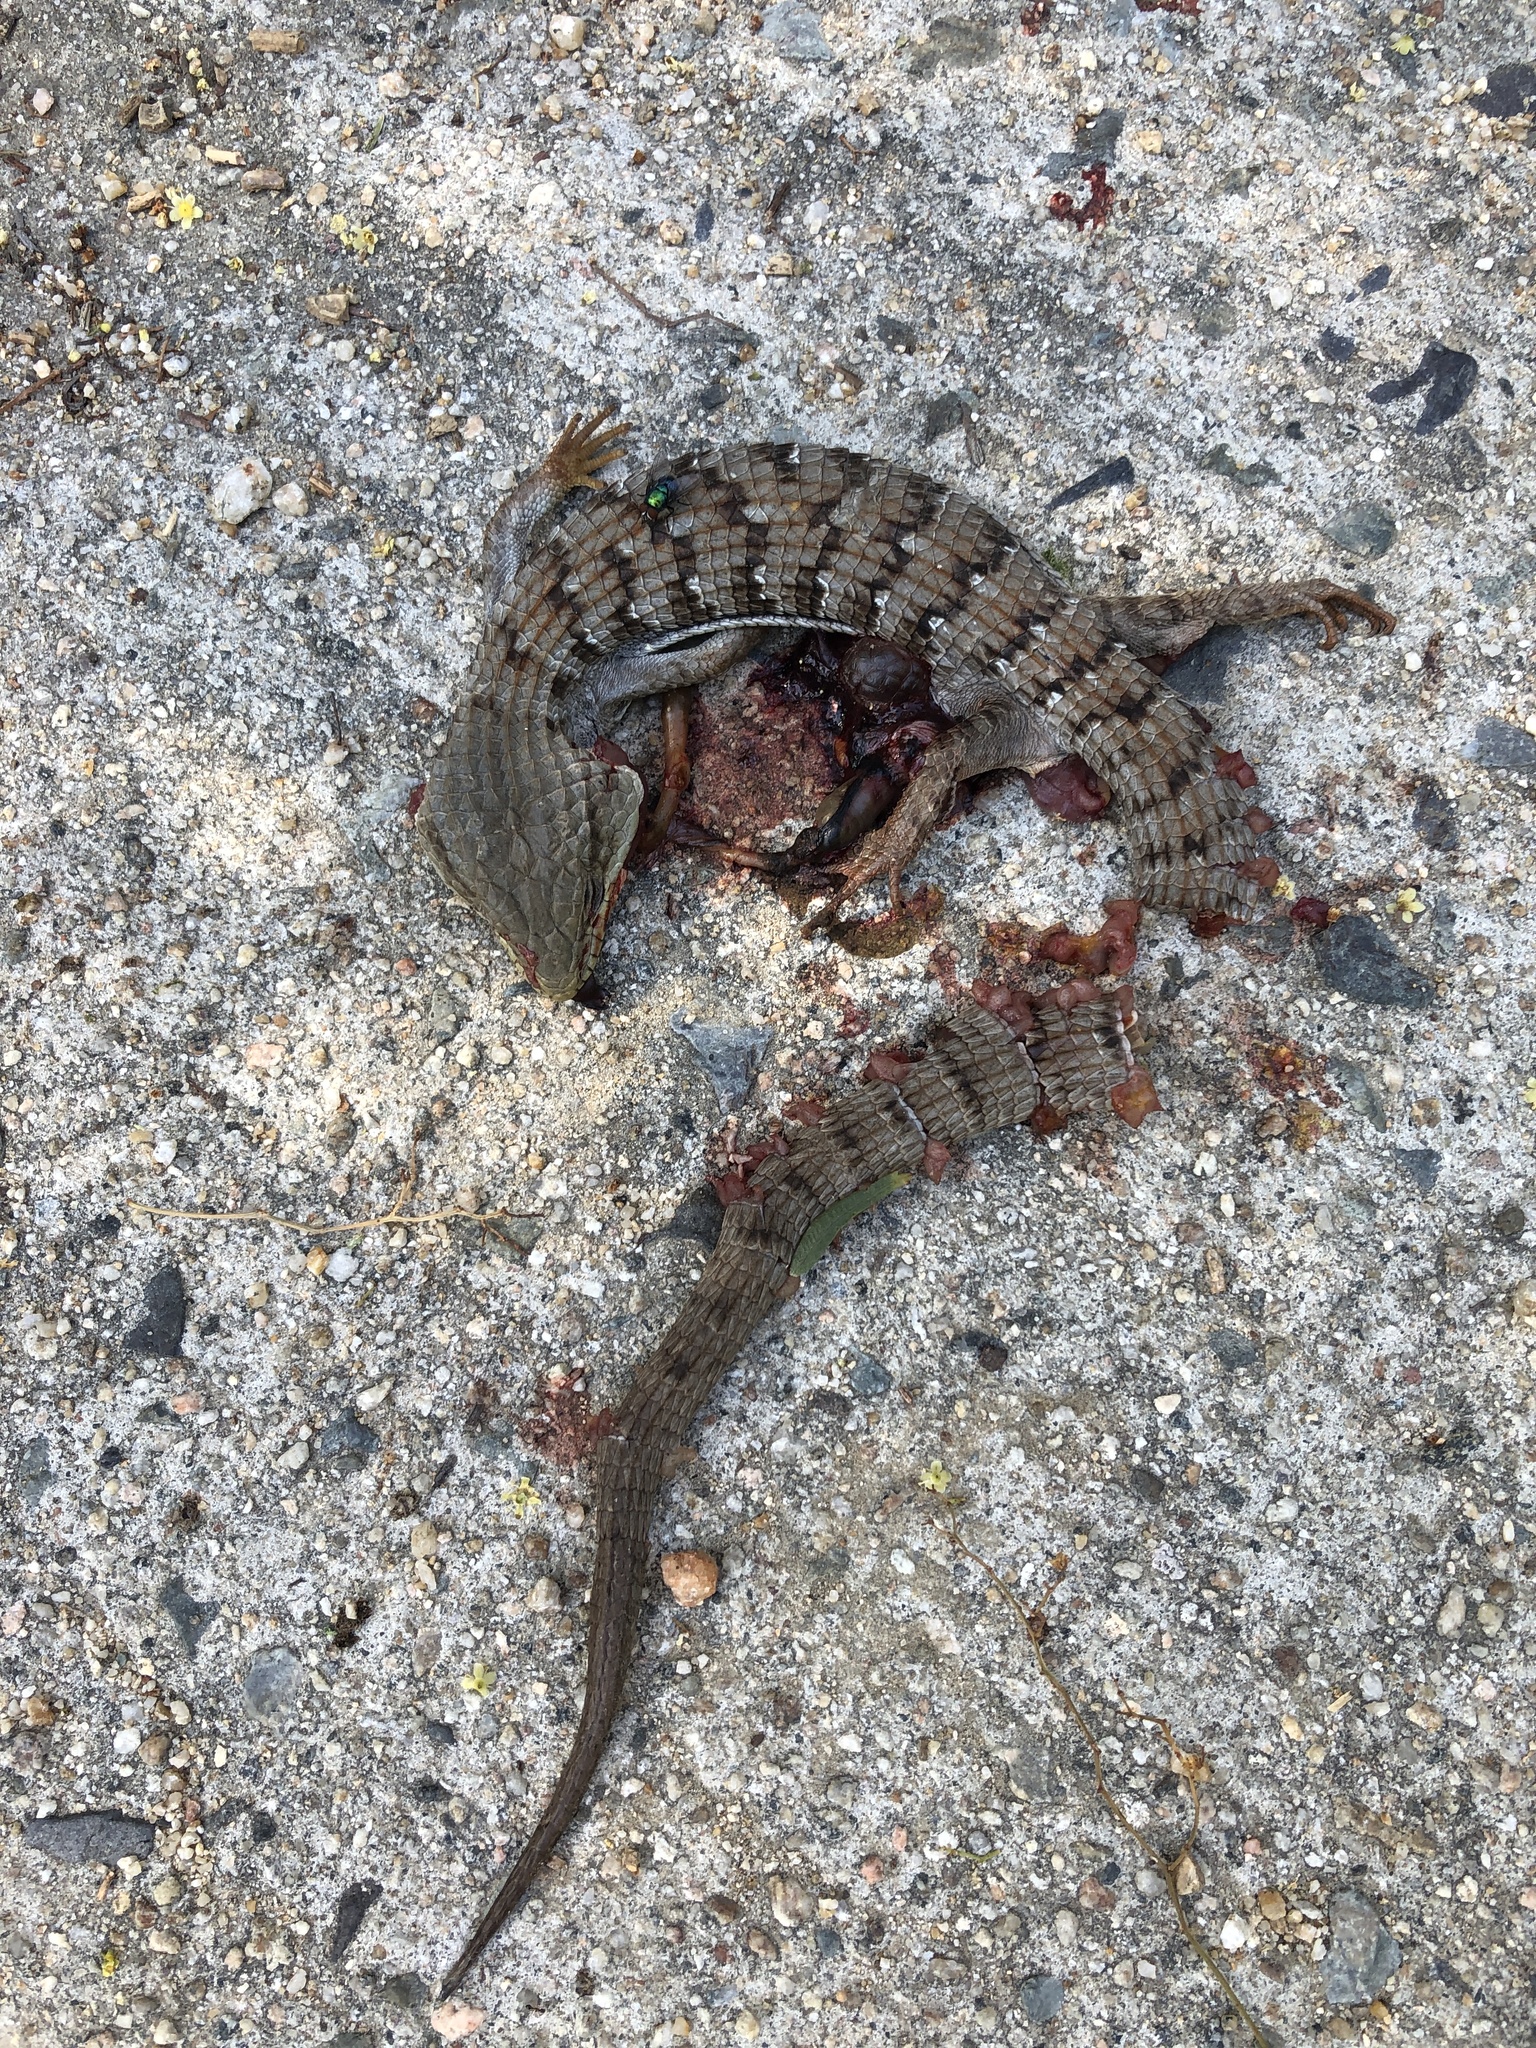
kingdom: Animalia
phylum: Chordata
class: Squamata
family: Anguidae
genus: Elgaria
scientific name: Elgaria multicarinata
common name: Southern alligator lizard
